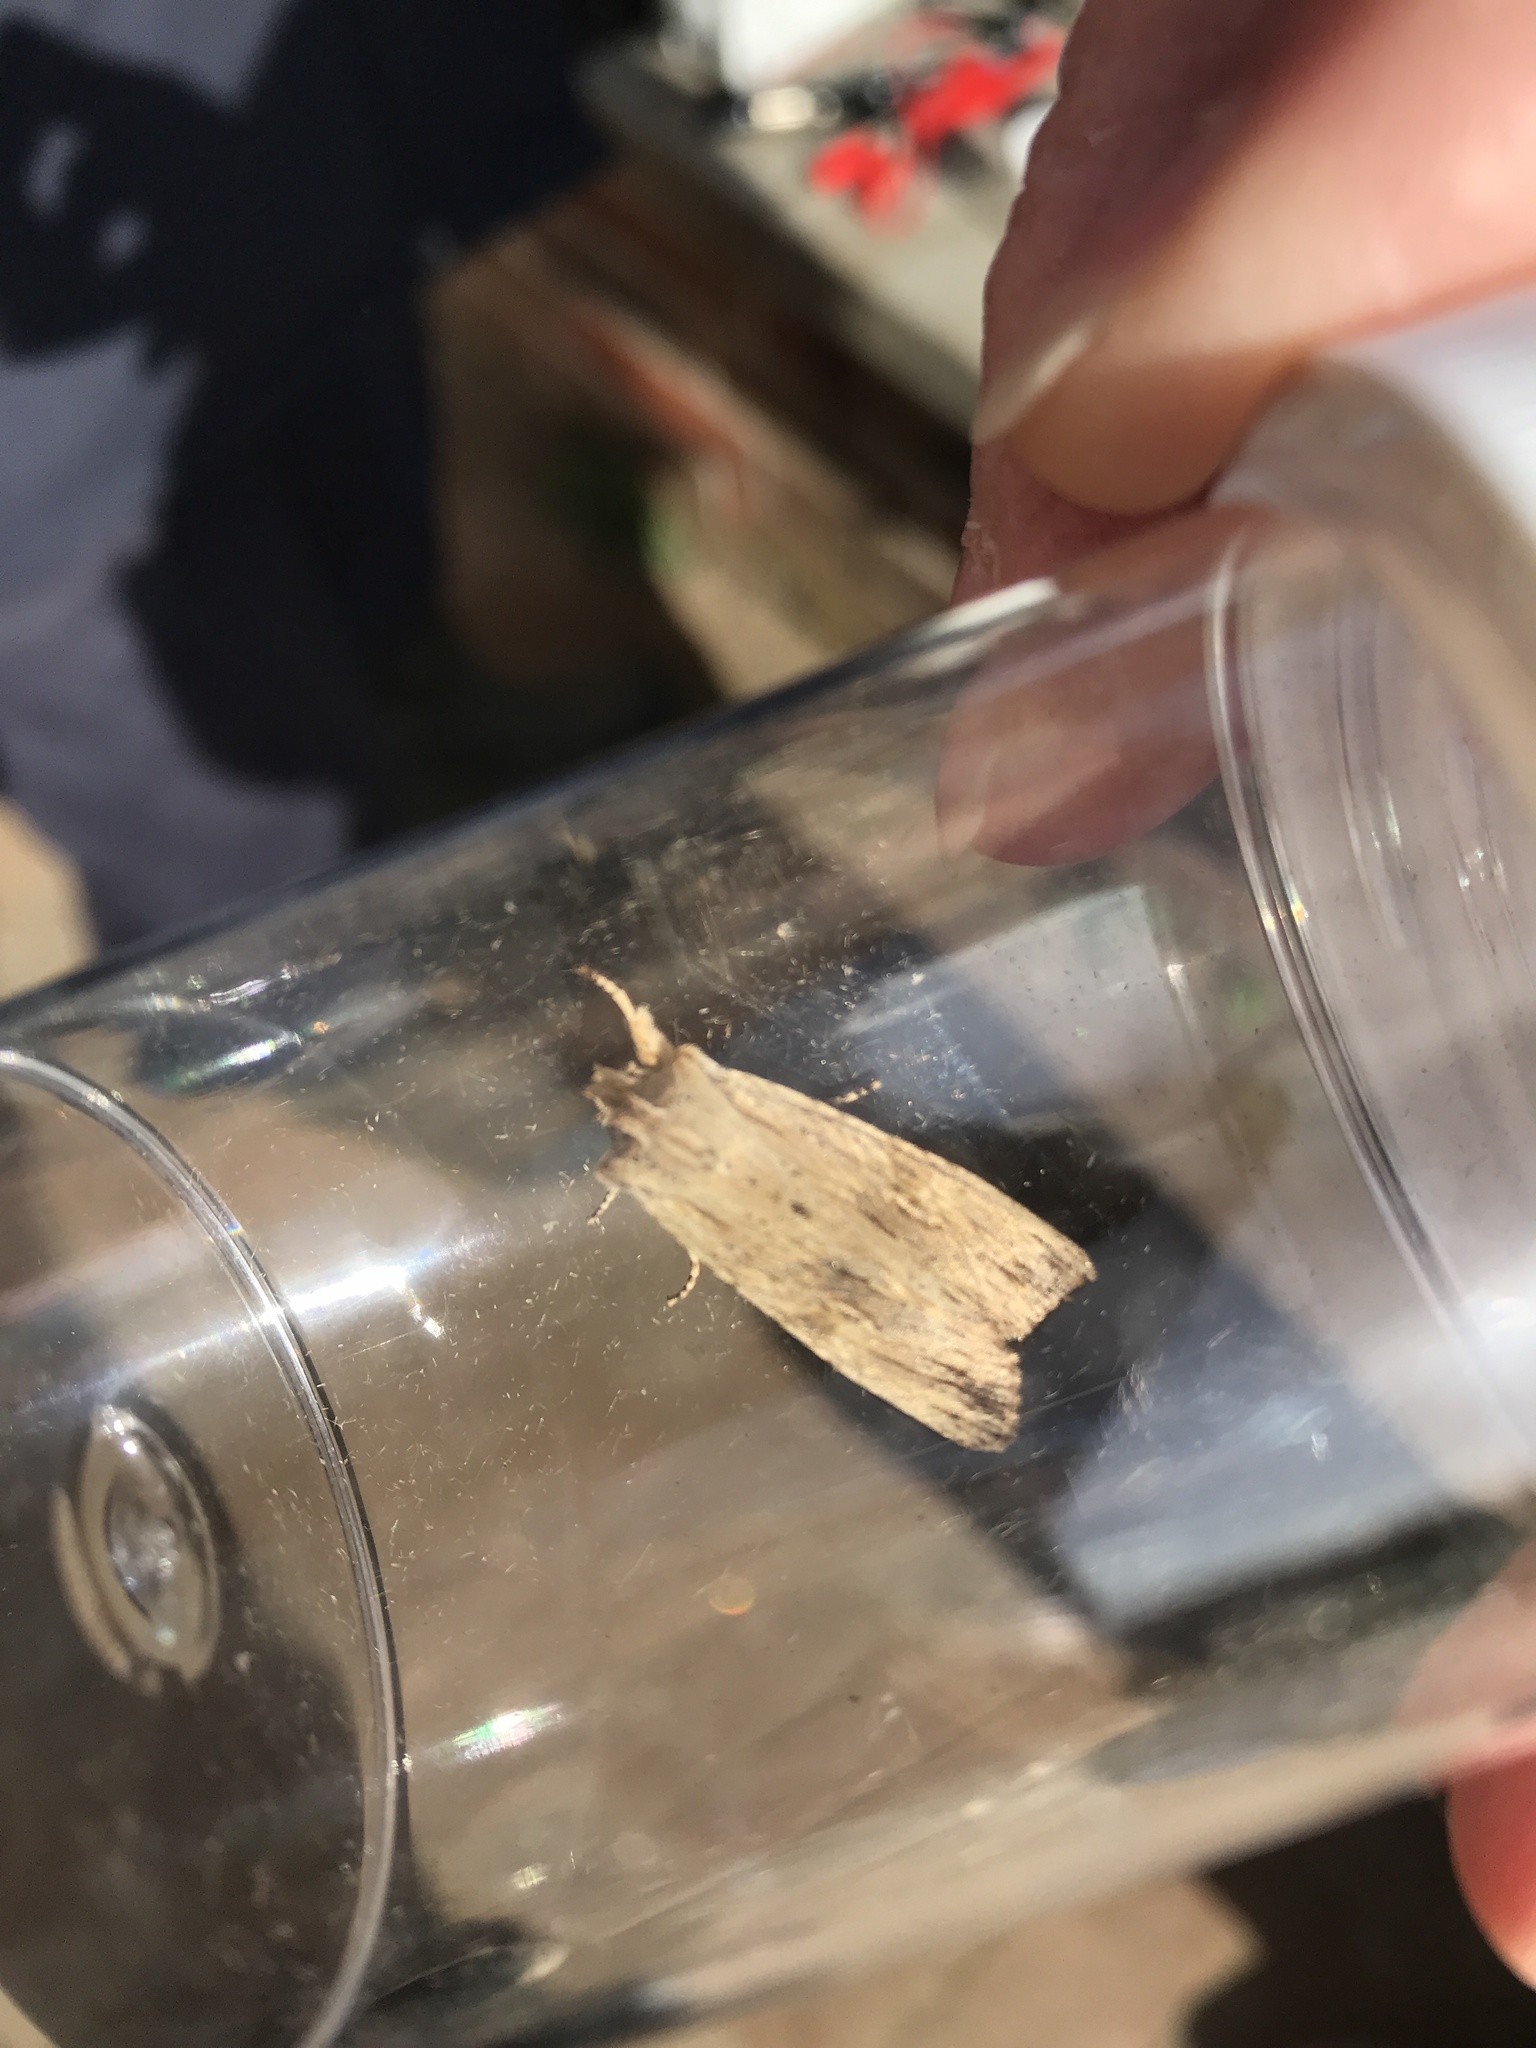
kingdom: Animalia
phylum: Arthropoda
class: Insecta
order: Lepidoptera
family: Noctuidae
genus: Lithophane
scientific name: Lithophane socia
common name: Pale pinion
